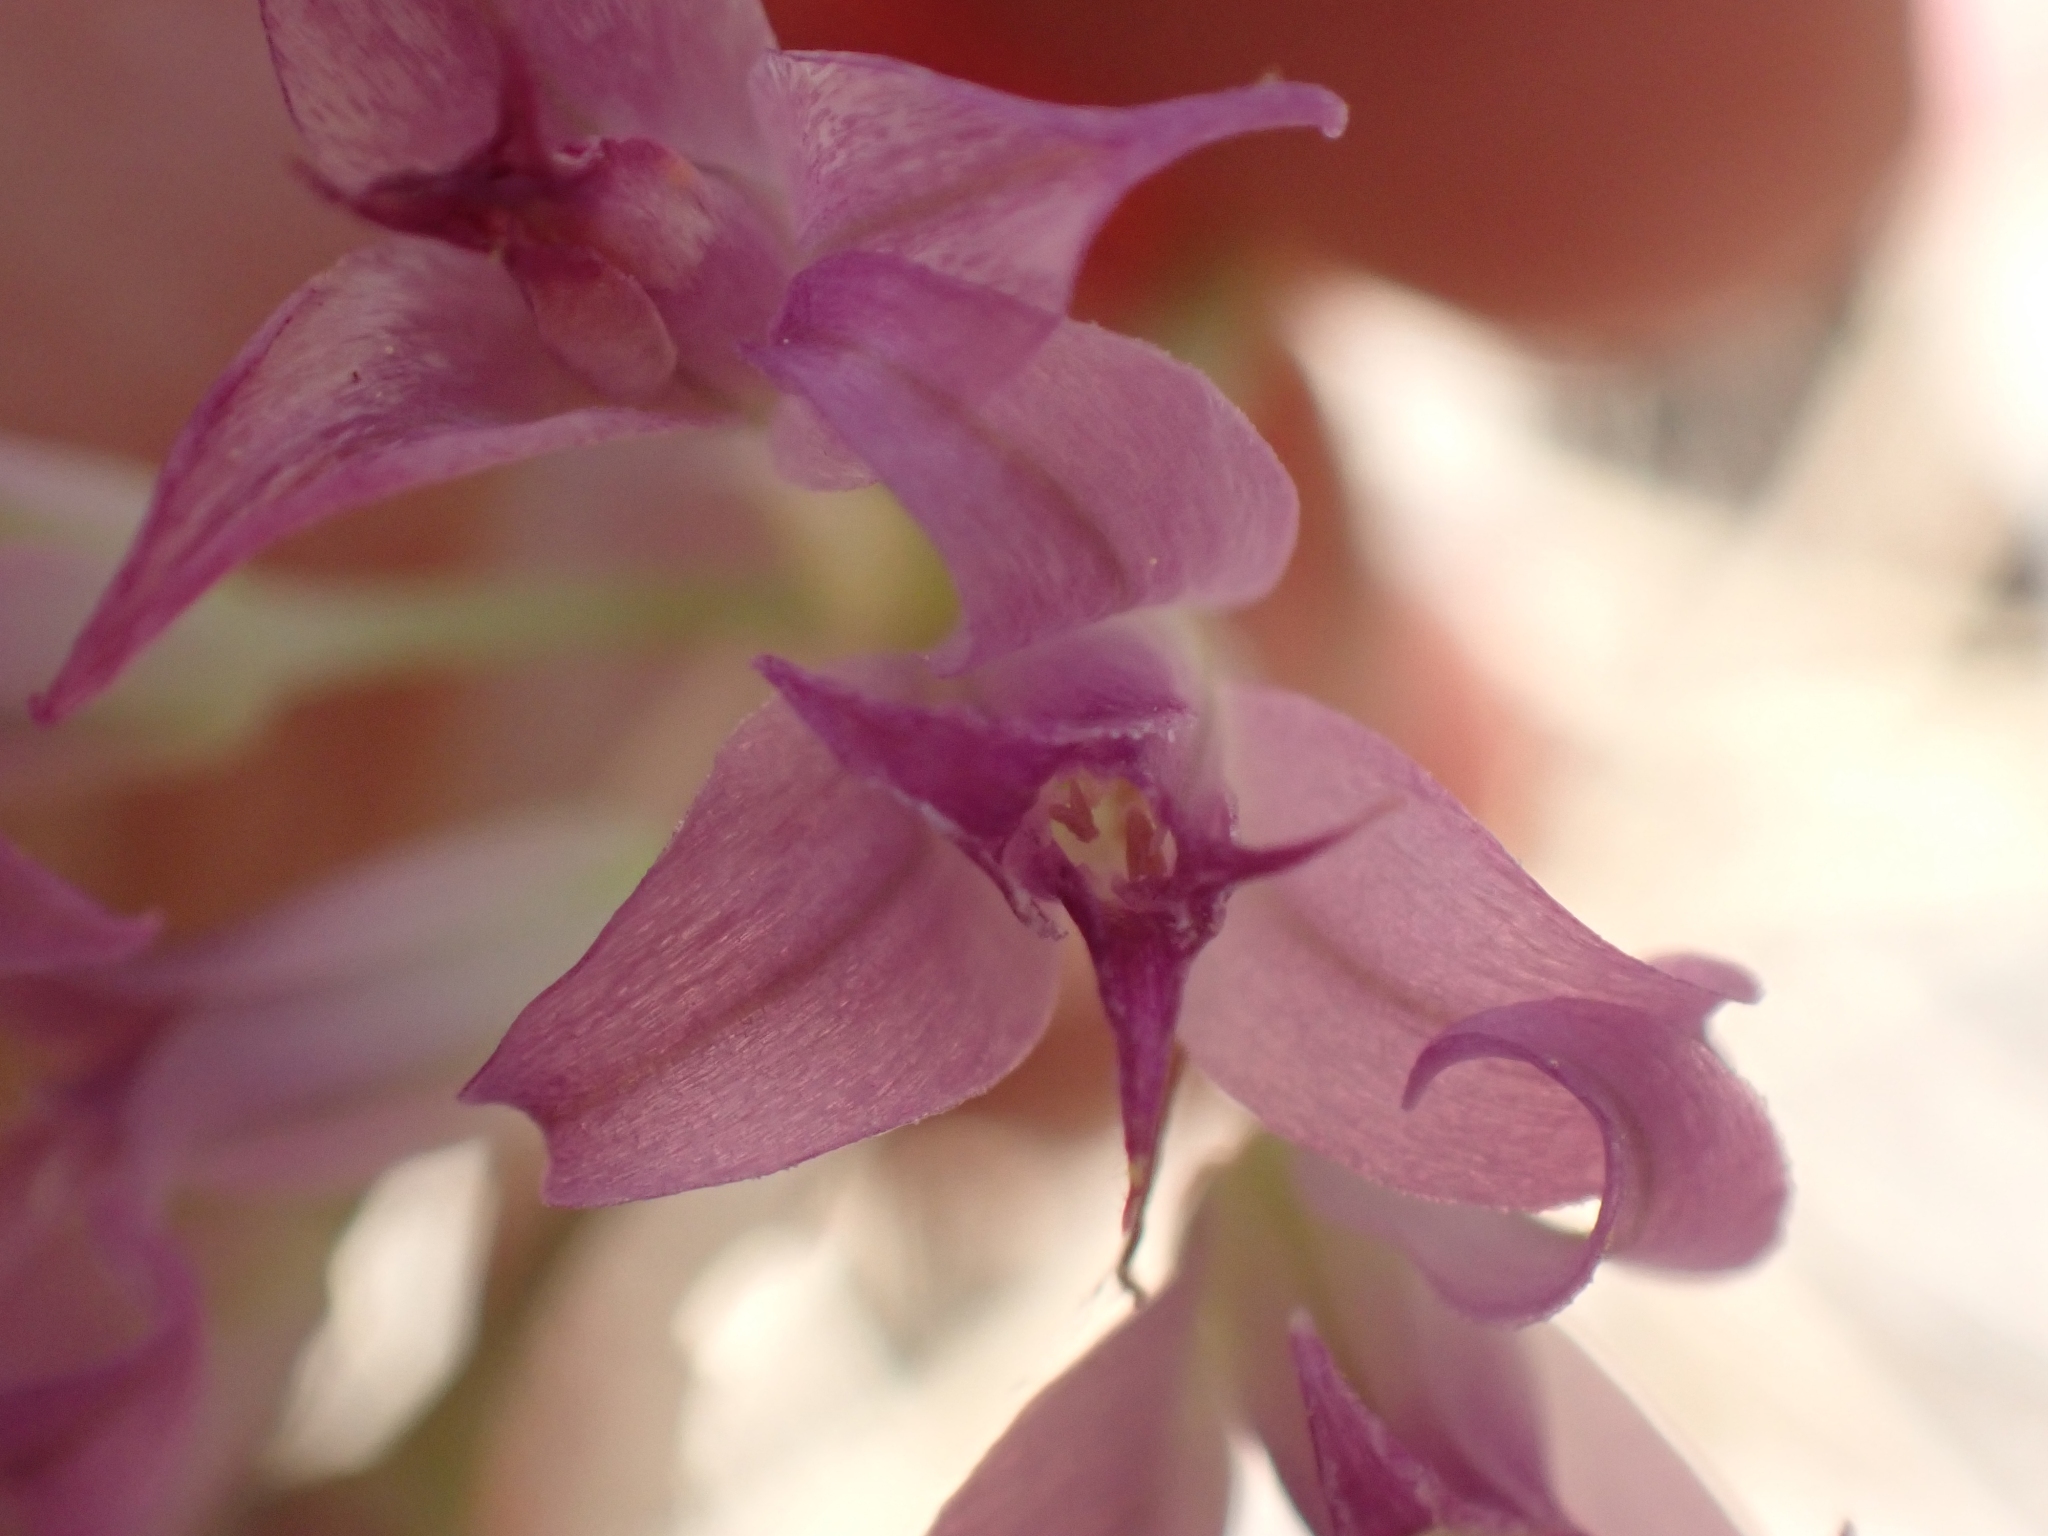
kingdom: Plantae
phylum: Tracheophyta
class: Liliopsida
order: Asparagales
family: Amaryllidaceae
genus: Allium
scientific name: Allium acuminatum
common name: Hooker's onion
